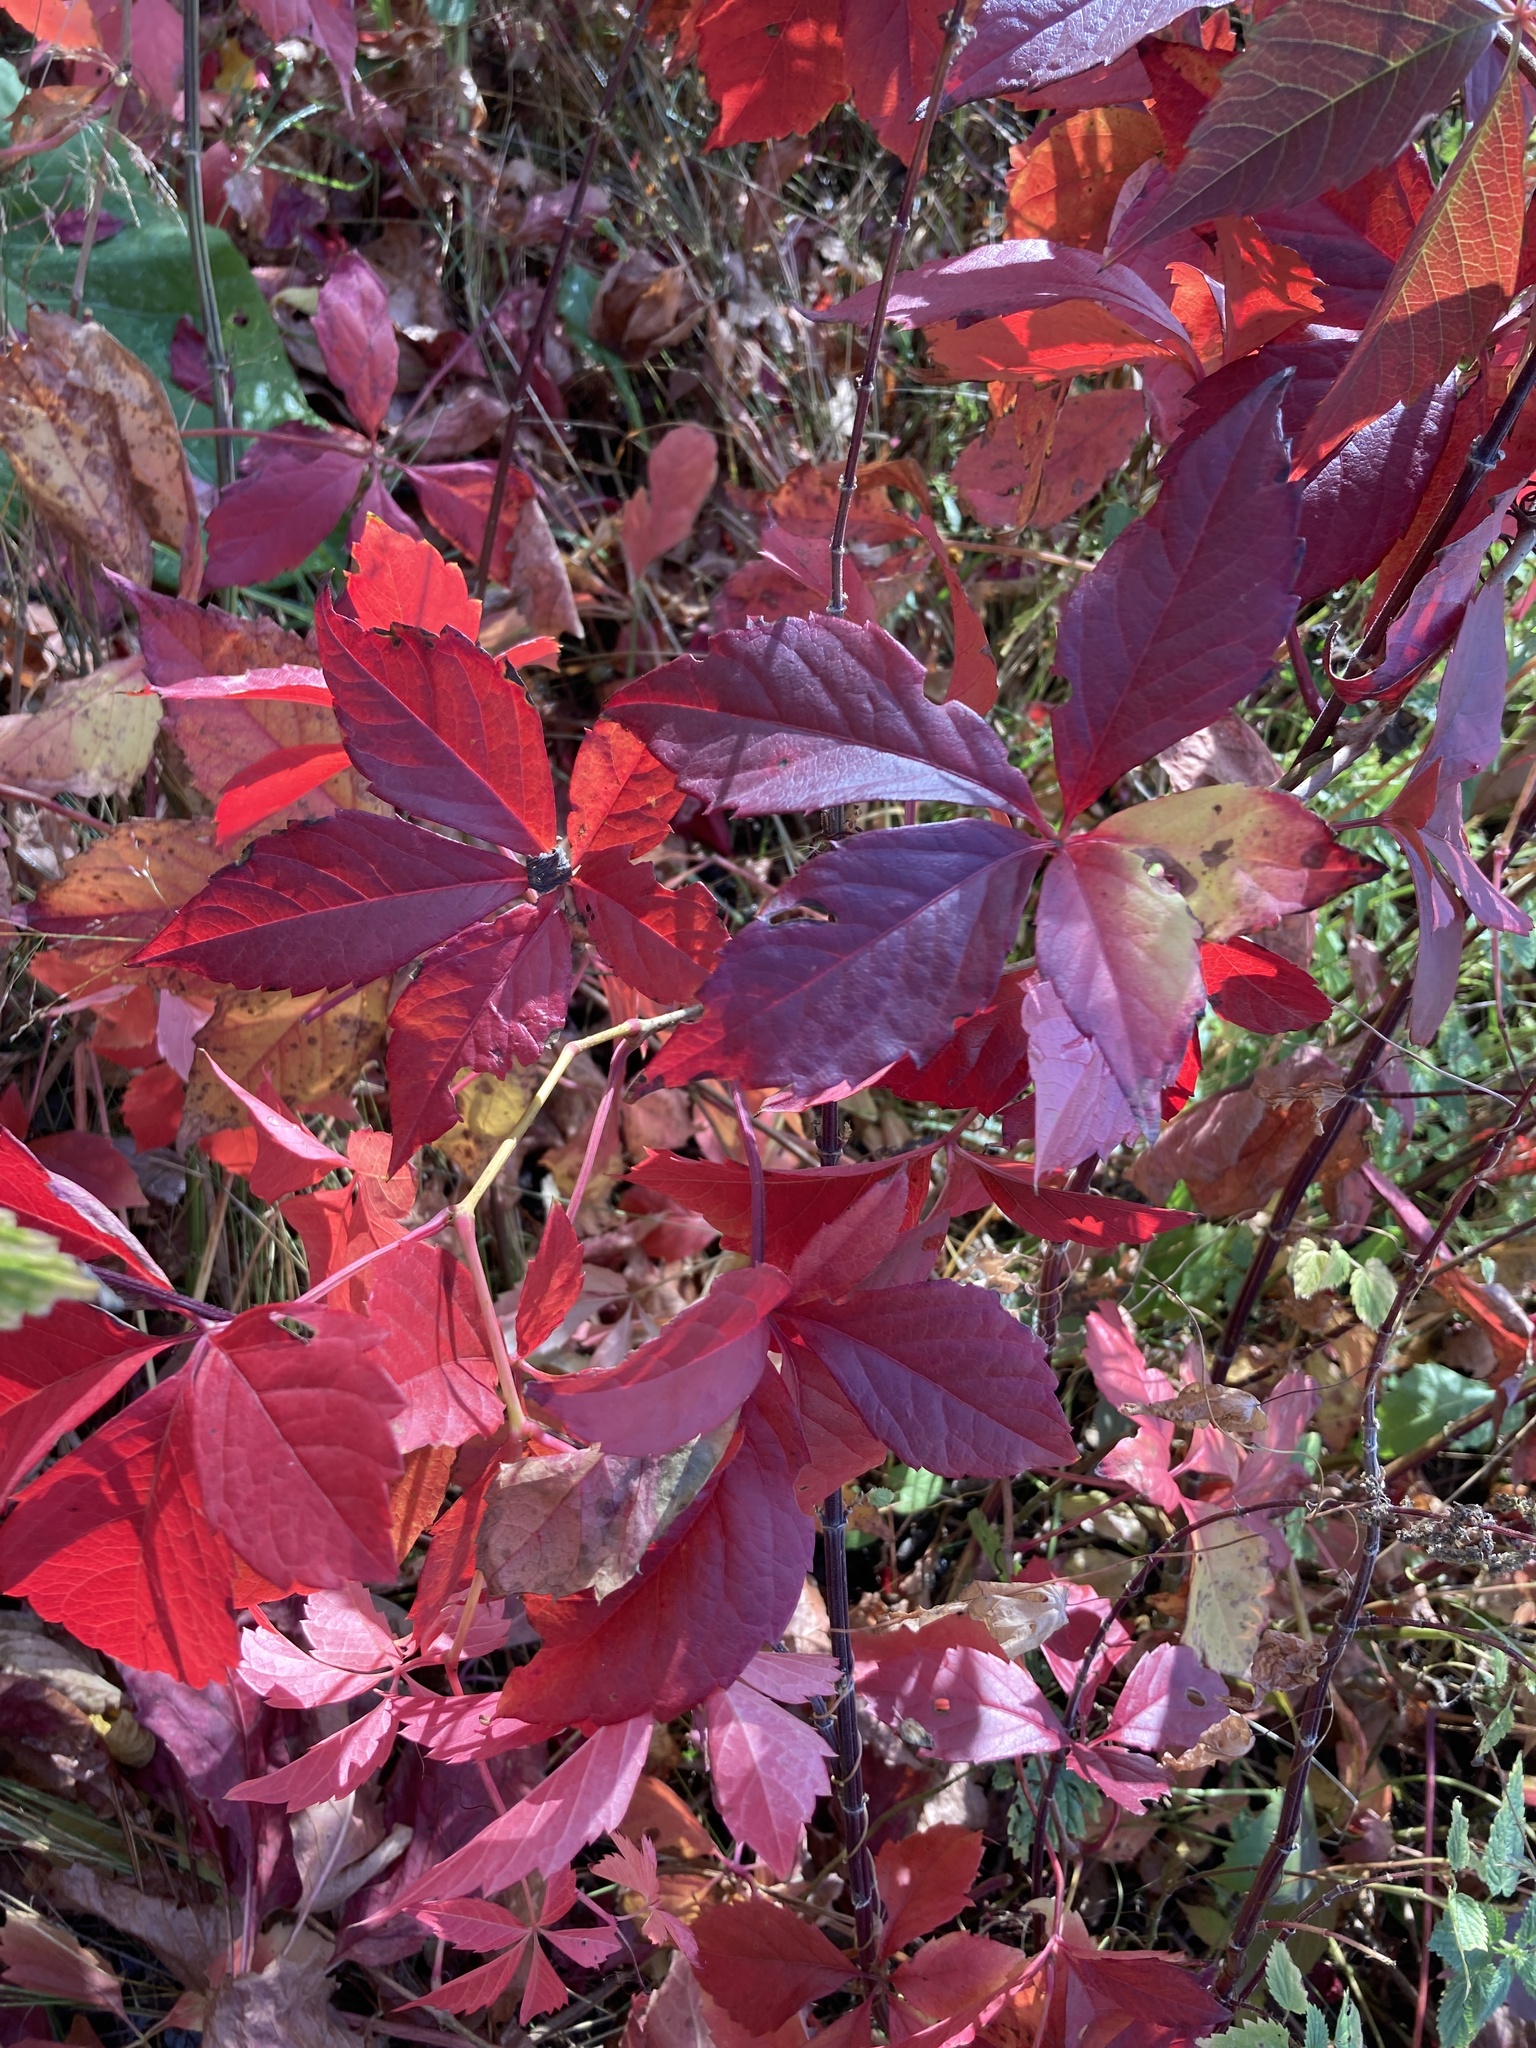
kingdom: Plantae
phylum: Tracheophyta
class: Magnoliopsida
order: Vitales
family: Vitaceae
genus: Parthenocissus
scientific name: Parthenocissus inserta
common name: False virginia-creeper
